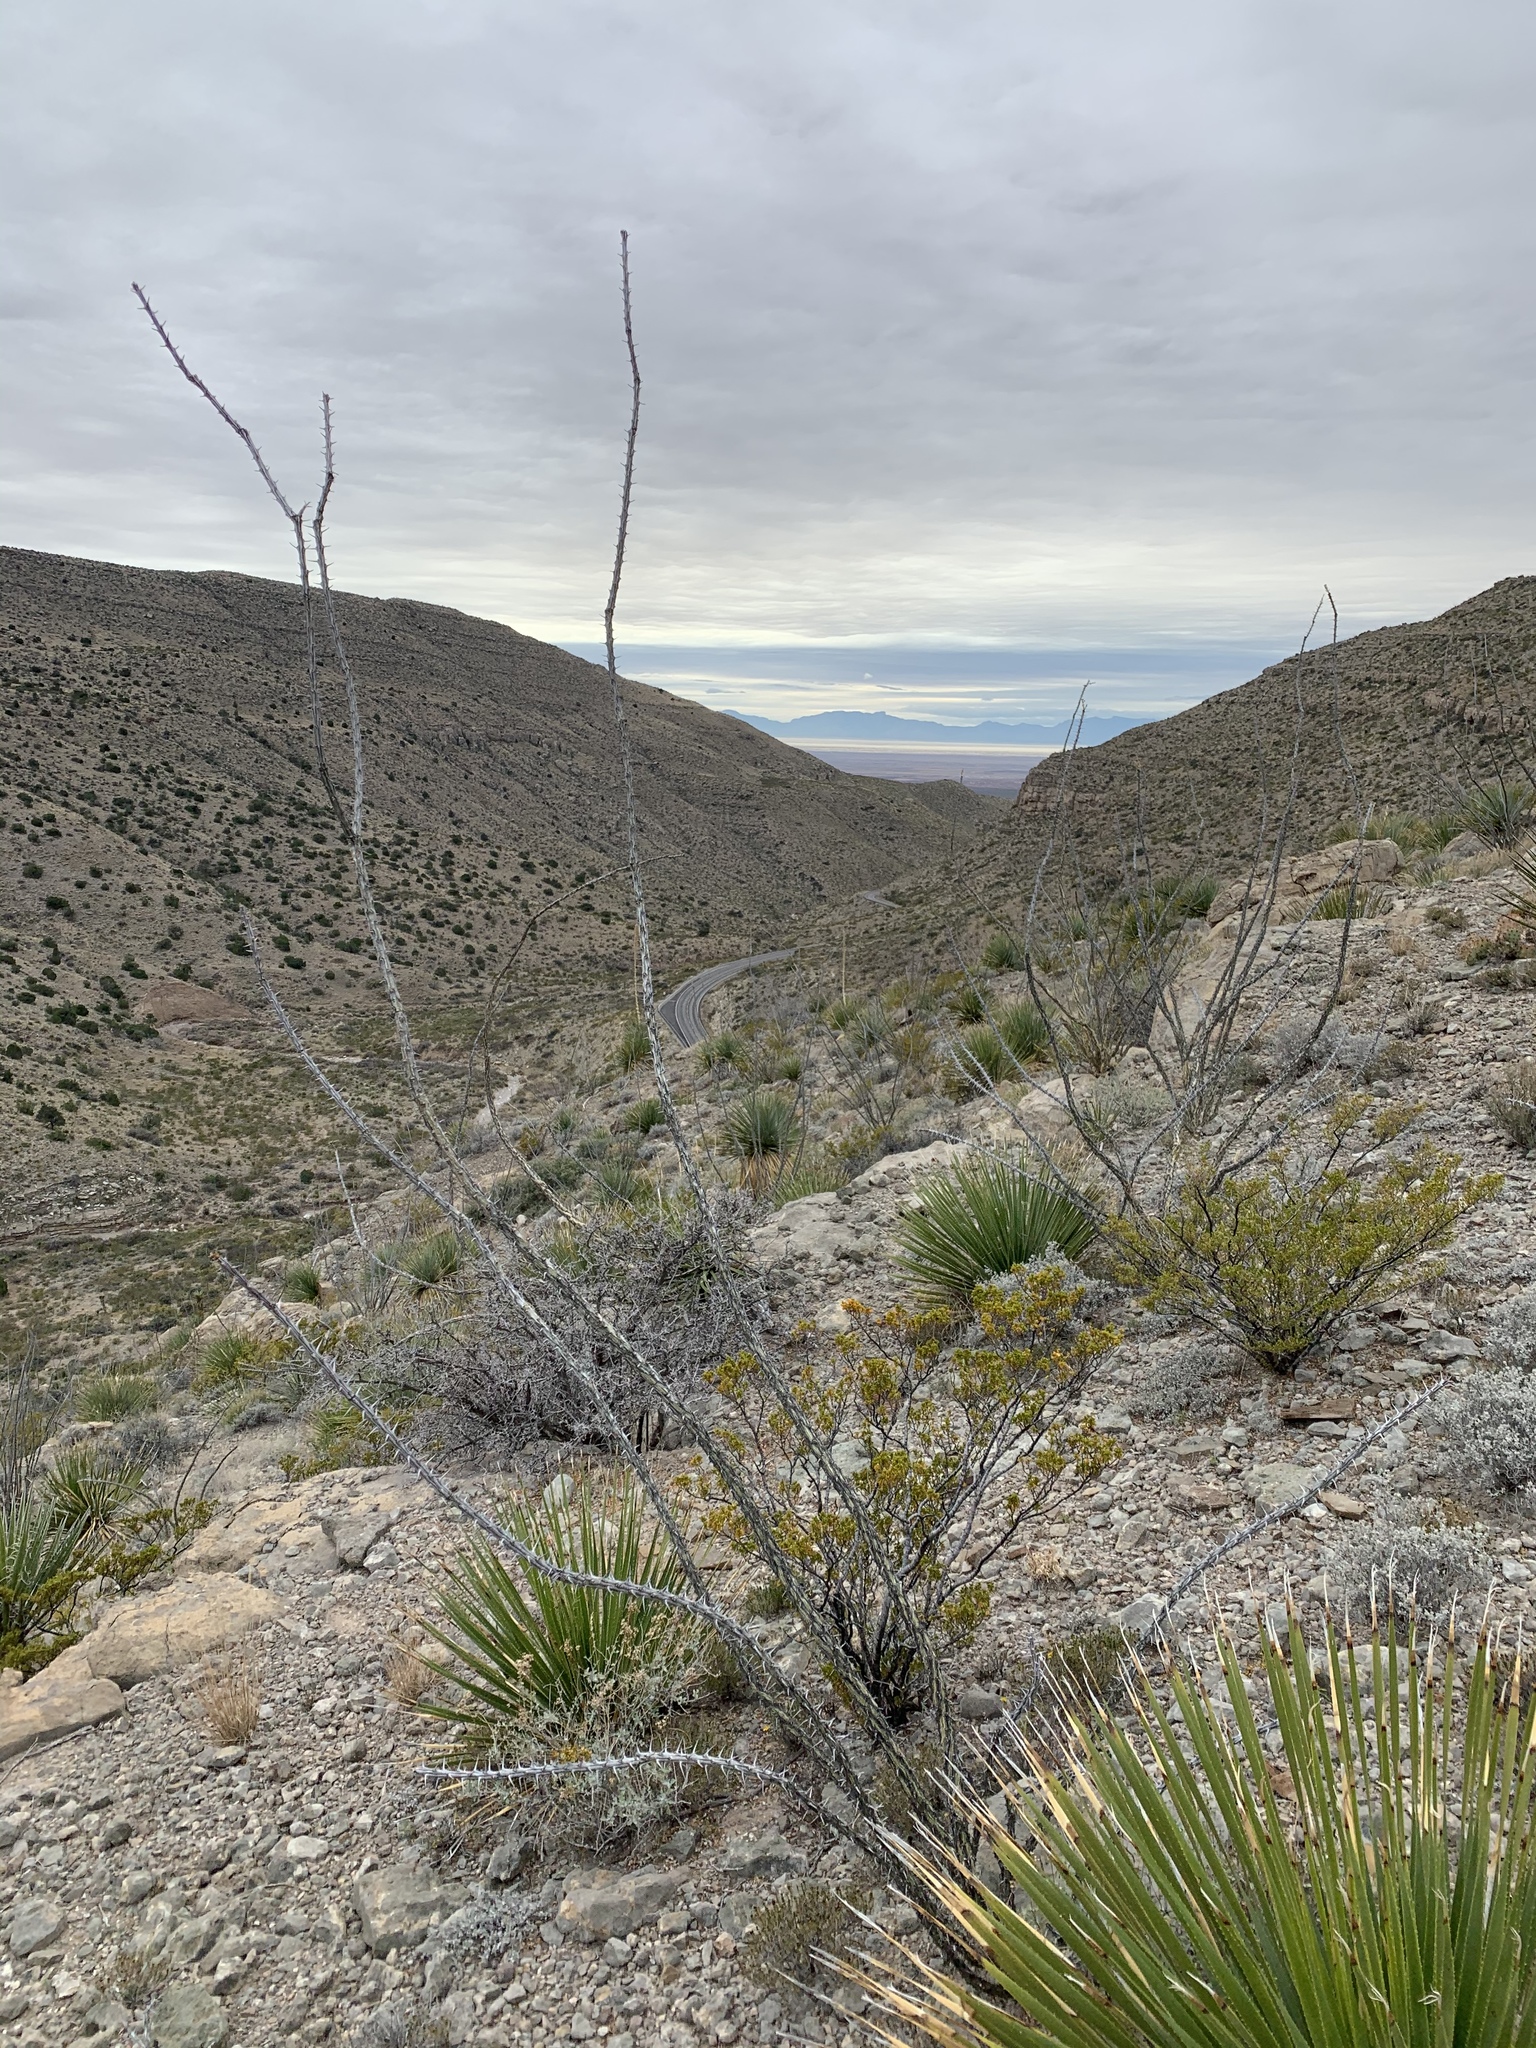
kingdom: Plantae
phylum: Tracheophyta
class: Magnoliopsida
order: Ericales
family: Fouquieriaceae
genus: Fouquieria
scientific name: Fouquieria splendens
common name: Vine-cactus
